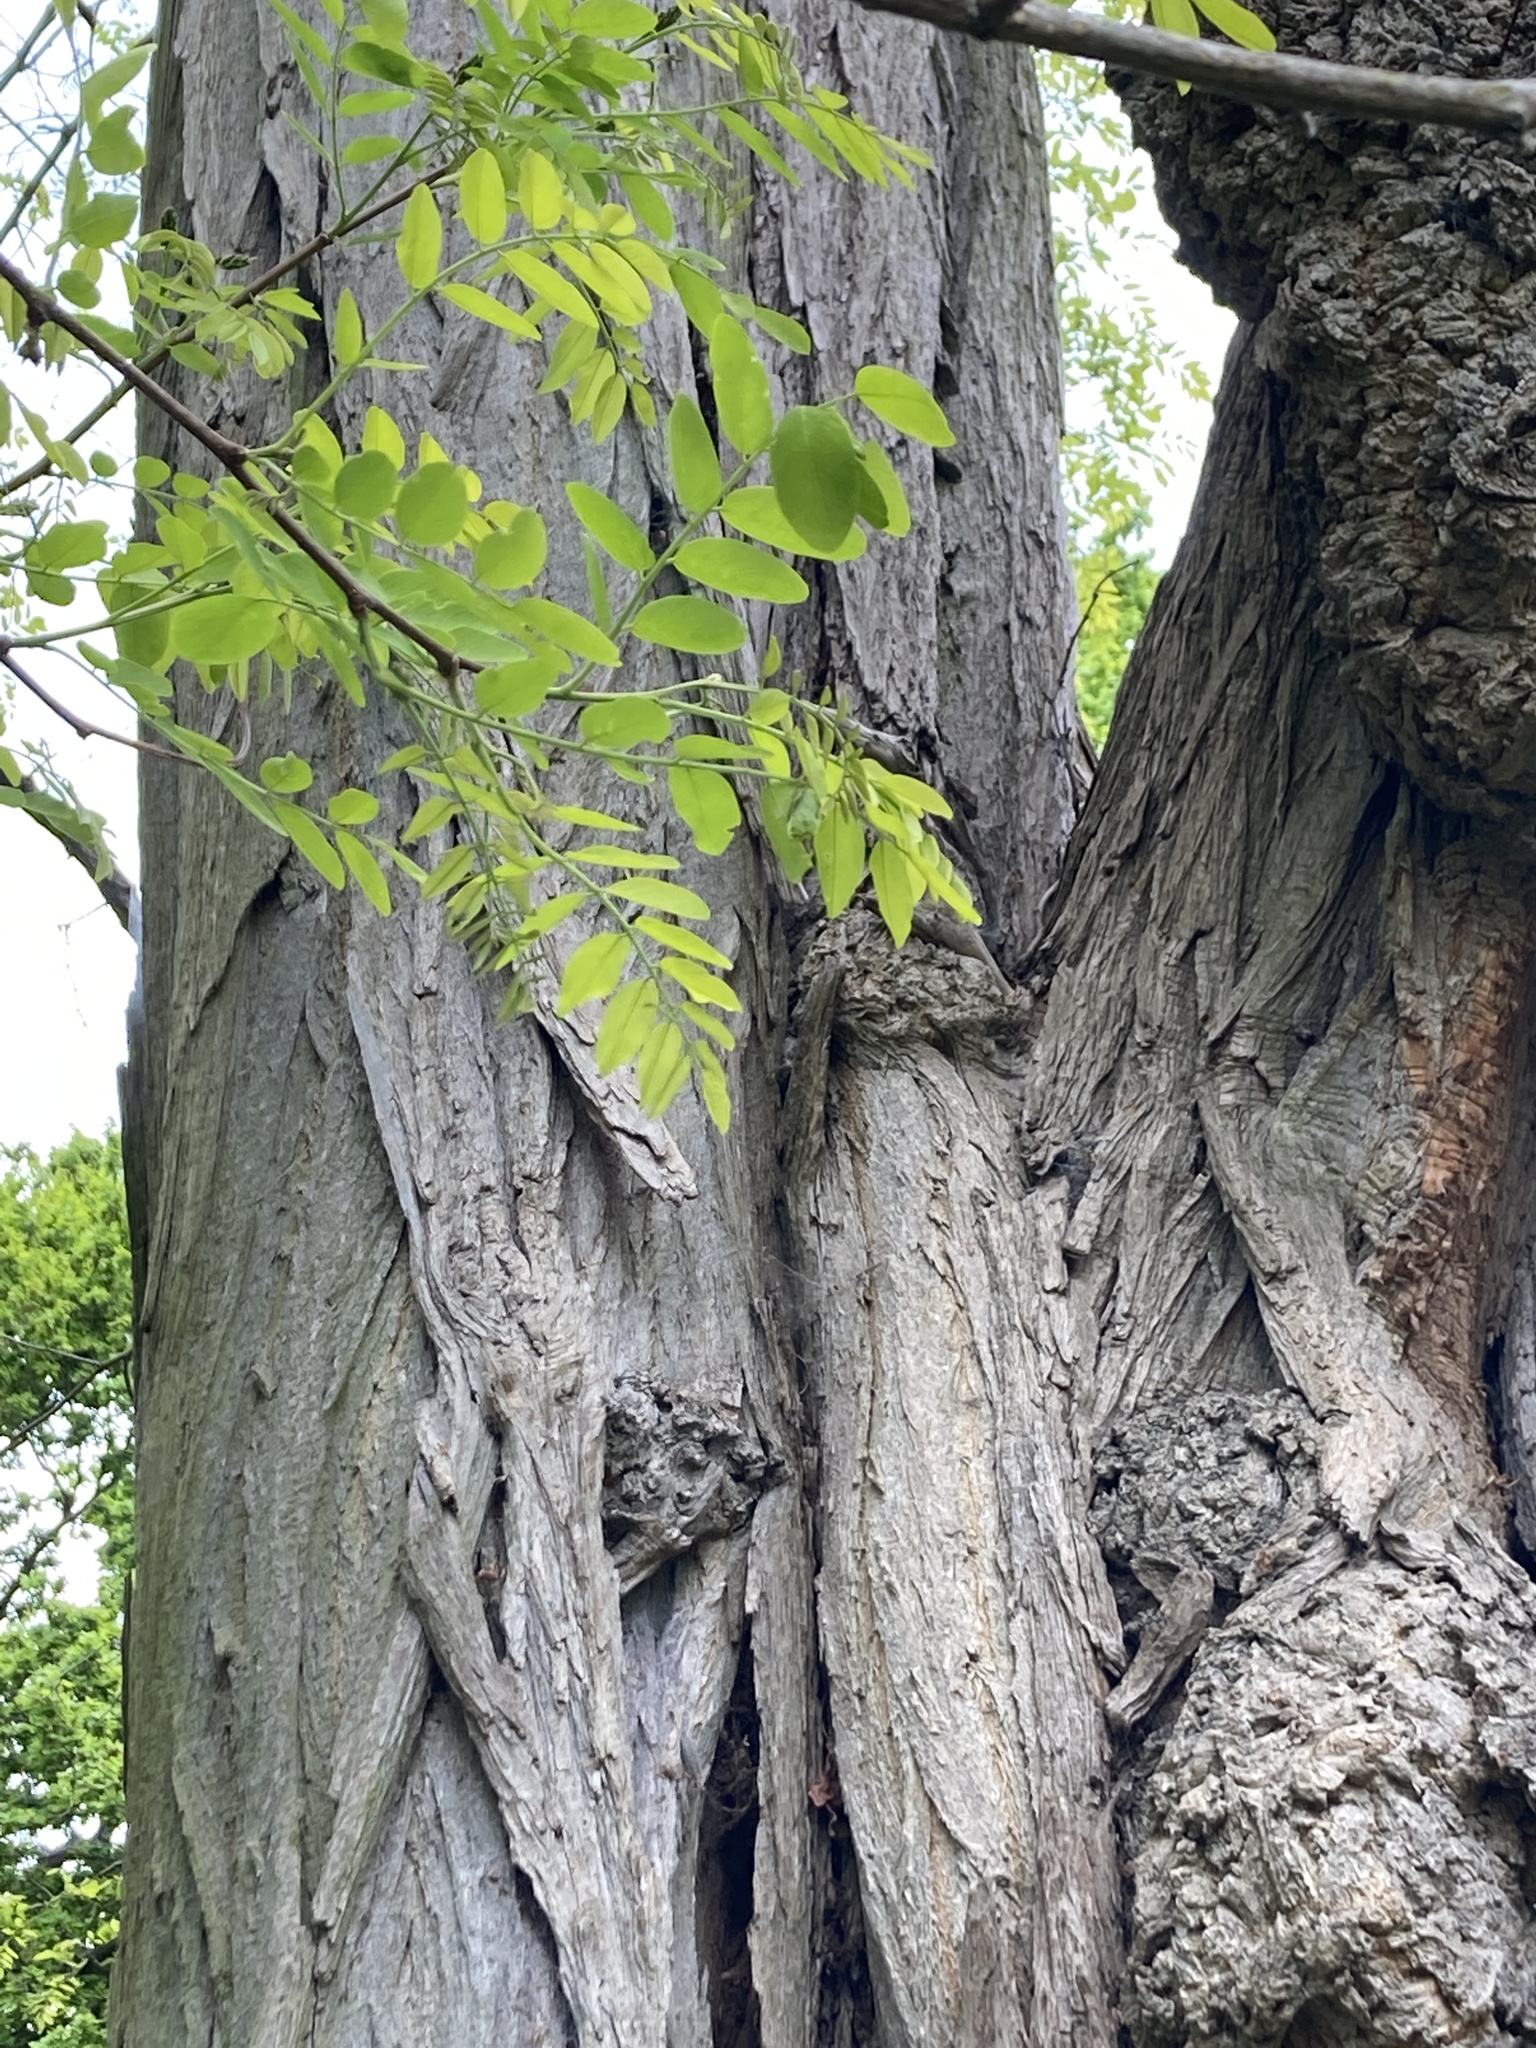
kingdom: Plantae
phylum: Tracheophyta
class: Magnoliopsida
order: Fabales
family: Fabaceae
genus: Robinia
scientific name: Robinia pseudoacacia
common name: Black locust
